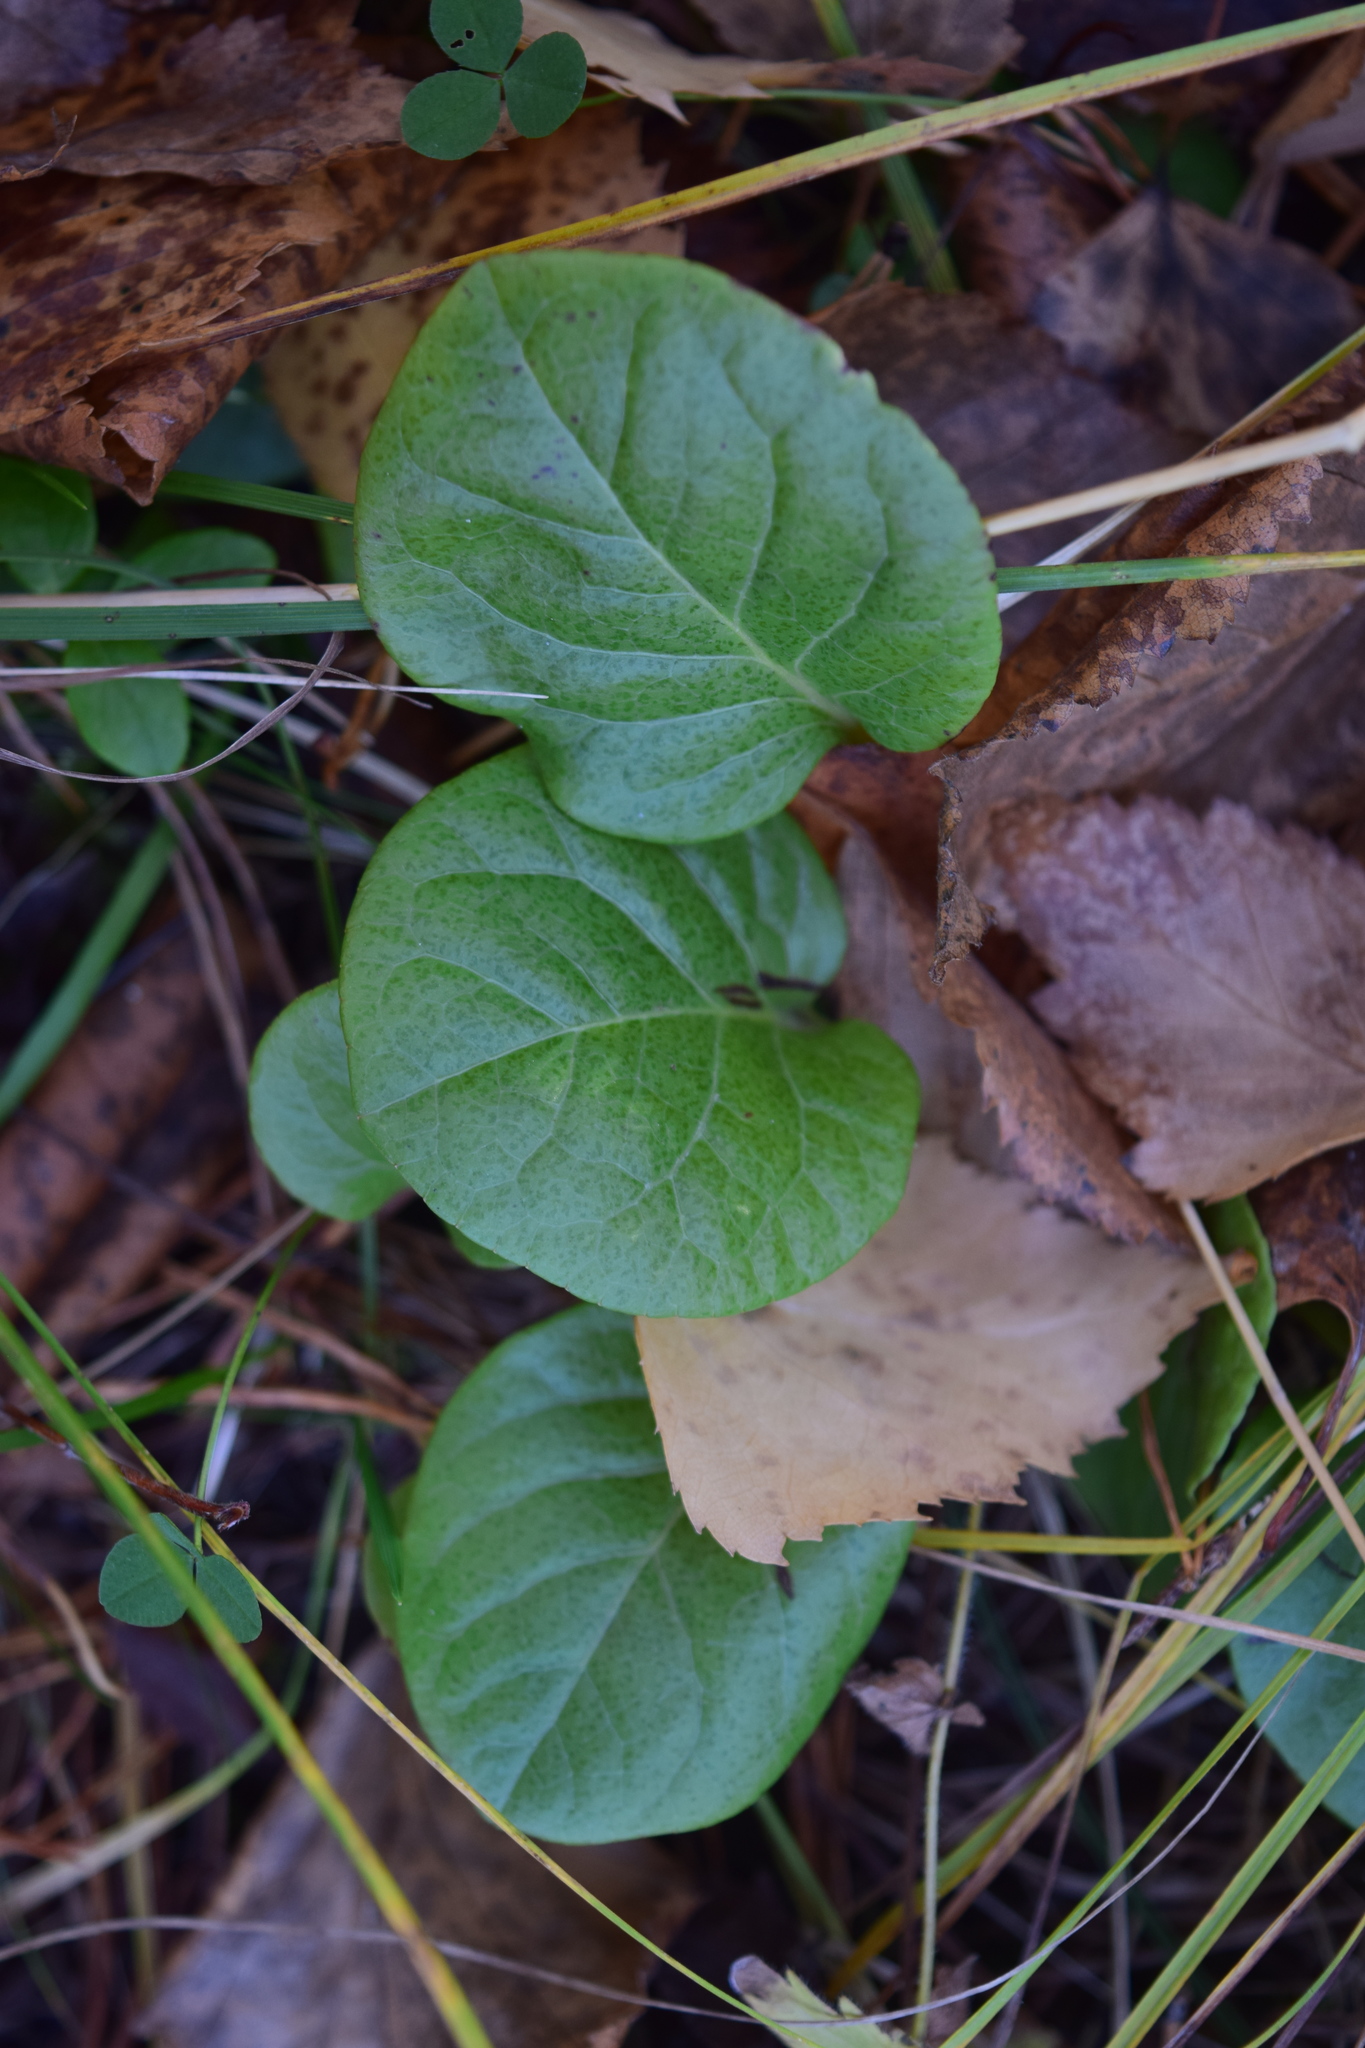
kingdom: Plantae
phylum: Tracheophyta
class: Magnoliopsida
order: Ericales
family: Ericaceae
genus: Pyrola
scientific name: Pyrola
